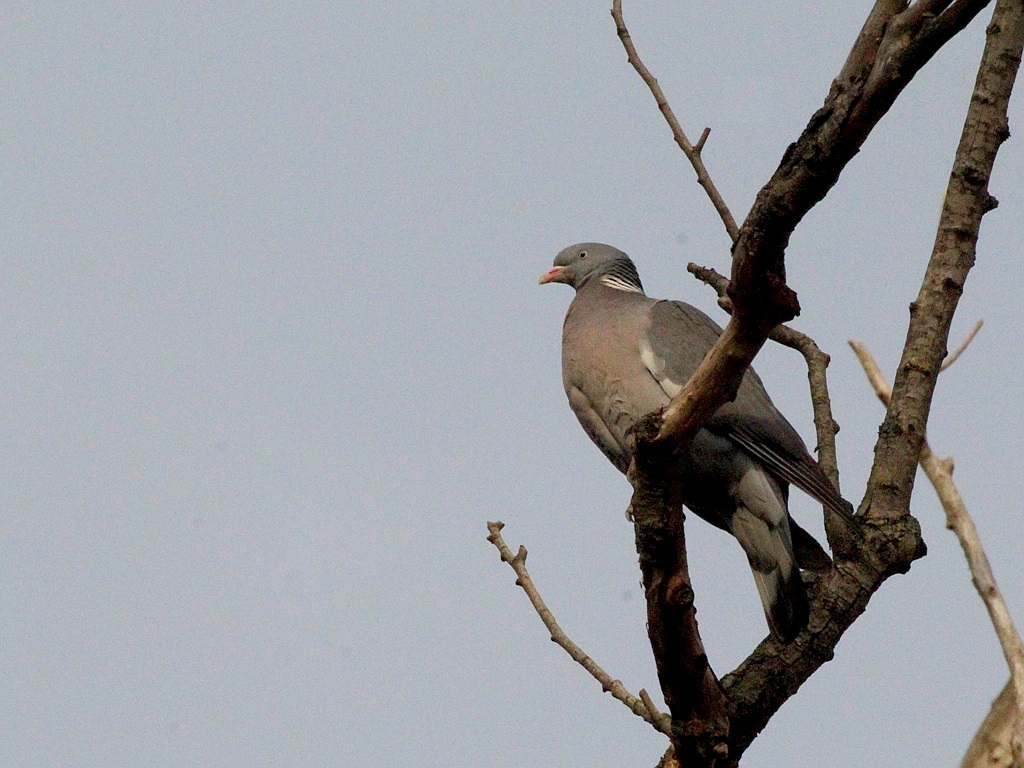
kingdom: Animalia
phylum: Chordata
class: Aves
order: Columbiformes
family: Columbidae
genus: Columba
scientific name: Columba palumbus
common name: Common wood pigeon
